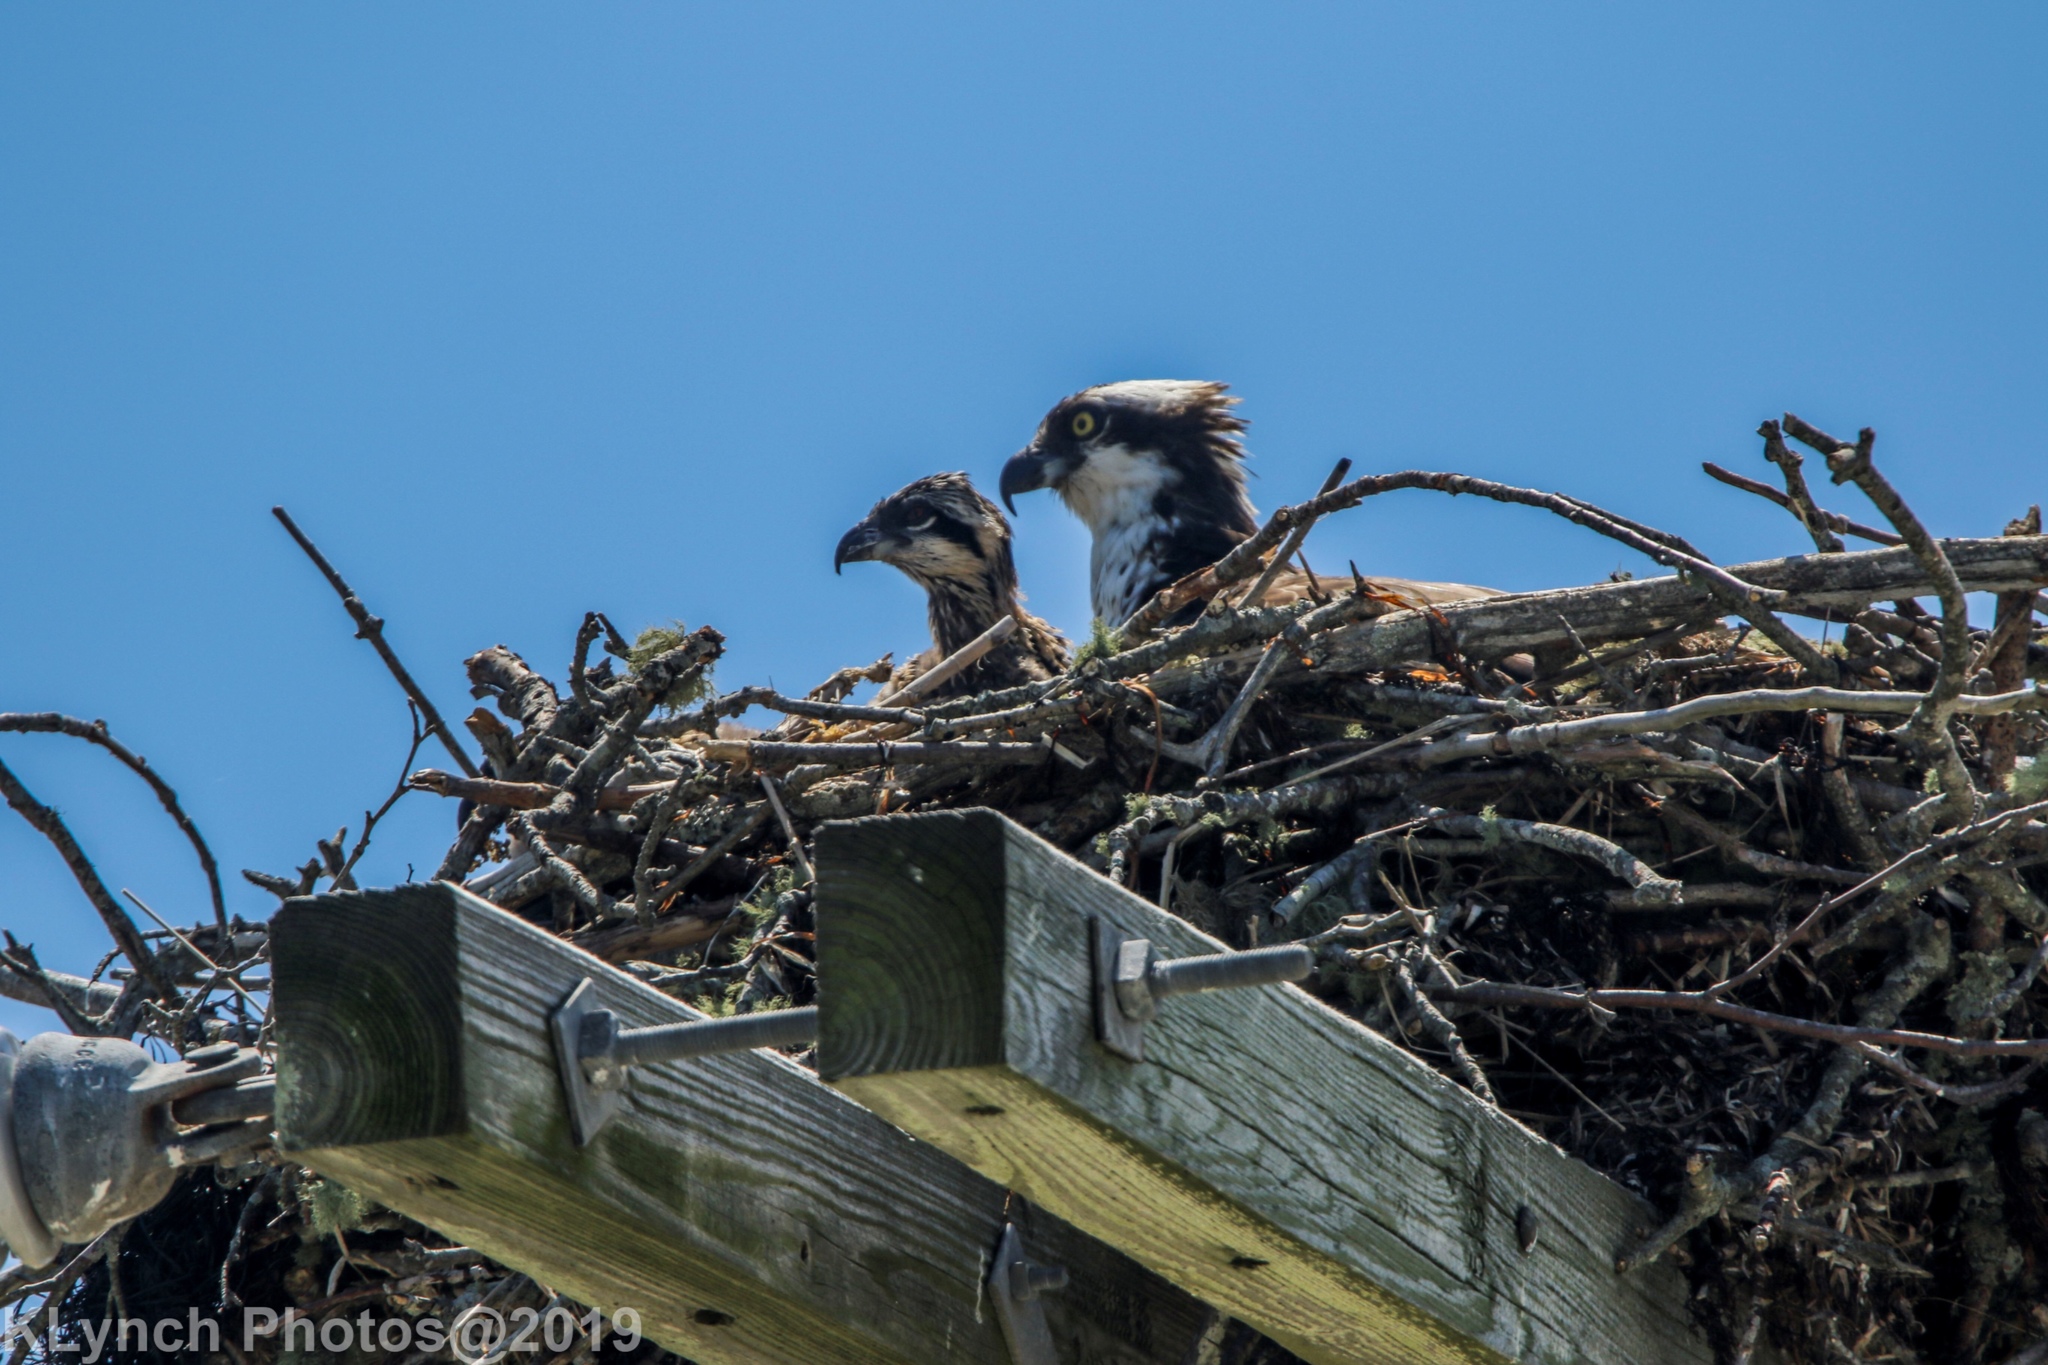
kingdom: Animalia
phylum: Chordata
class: Aves
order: Accipitriformes
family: Pandionidae
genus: Pandion
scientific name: Pandion haliaetus
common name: Osprey
